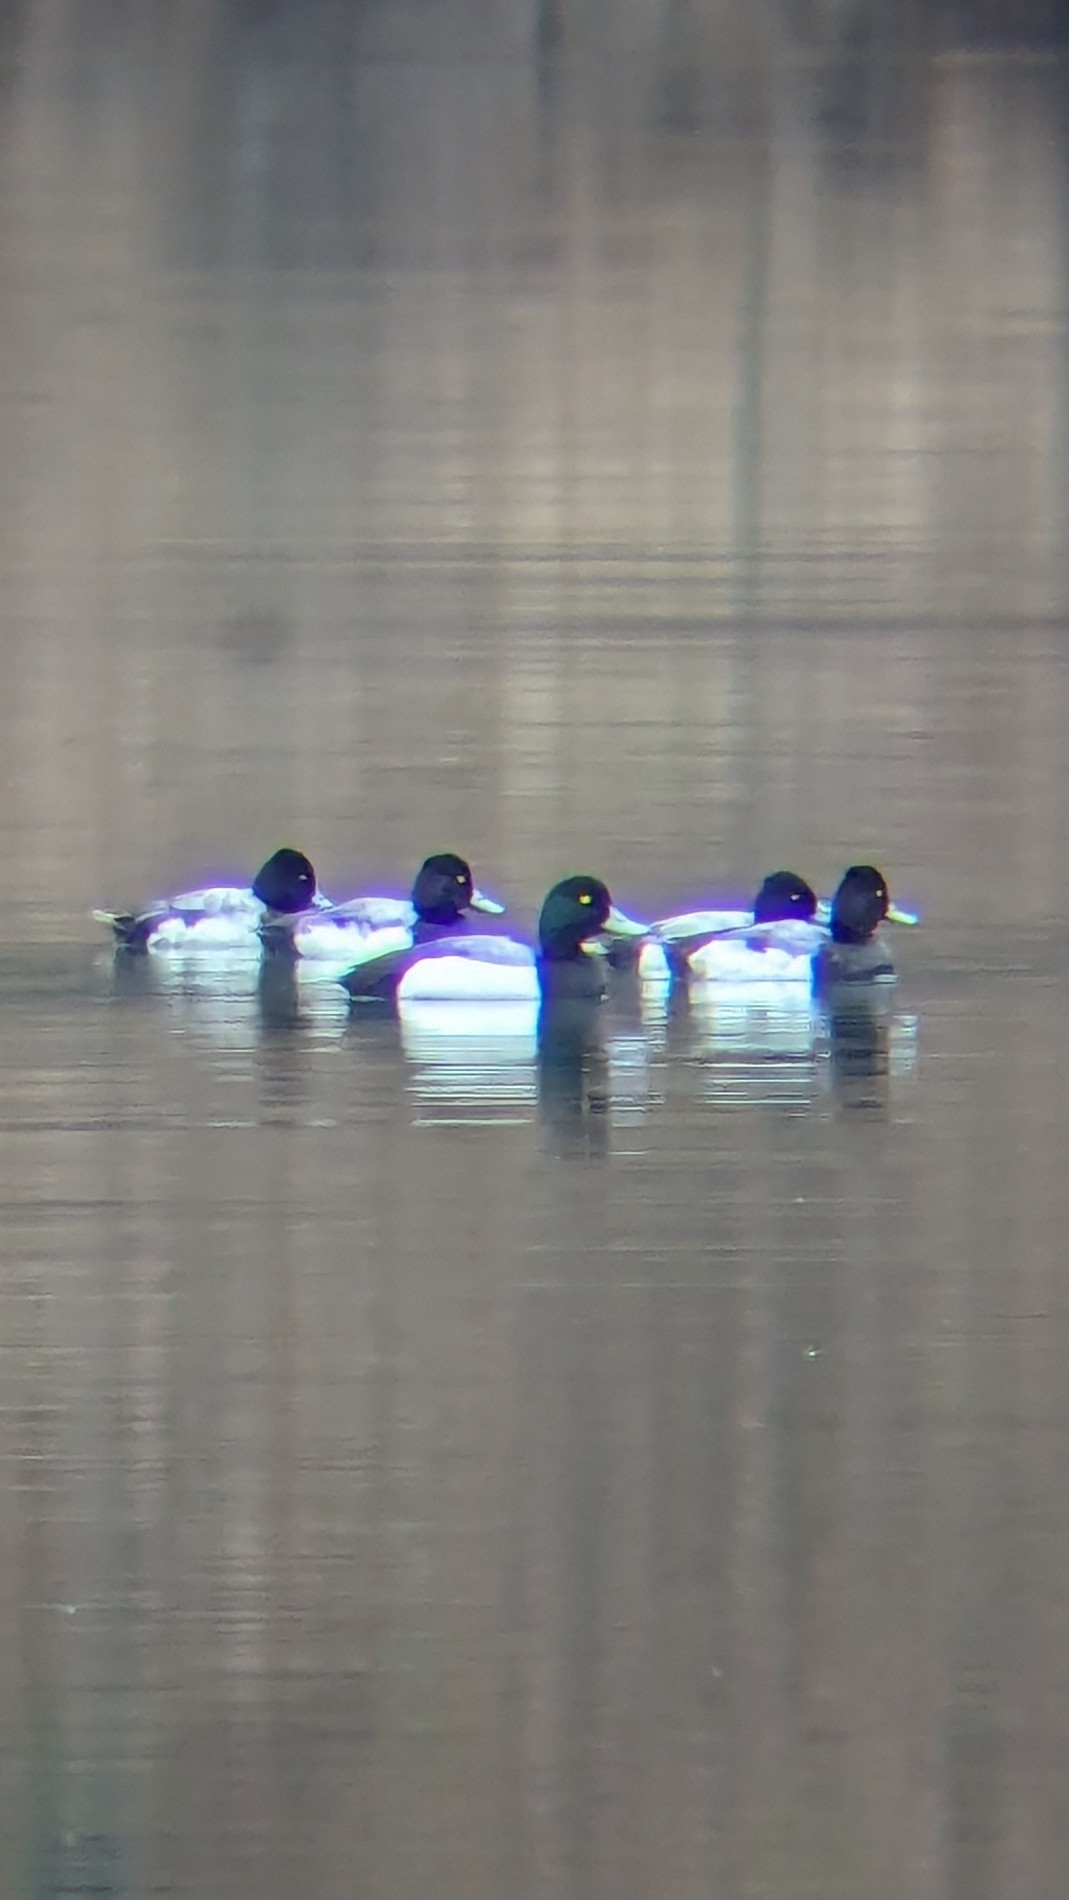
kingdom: Animalia
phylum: Chordata
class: Aves
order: Anseriformes
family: Anatidae
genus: Aythya
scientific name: Aythya marila
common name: Greater scaup
